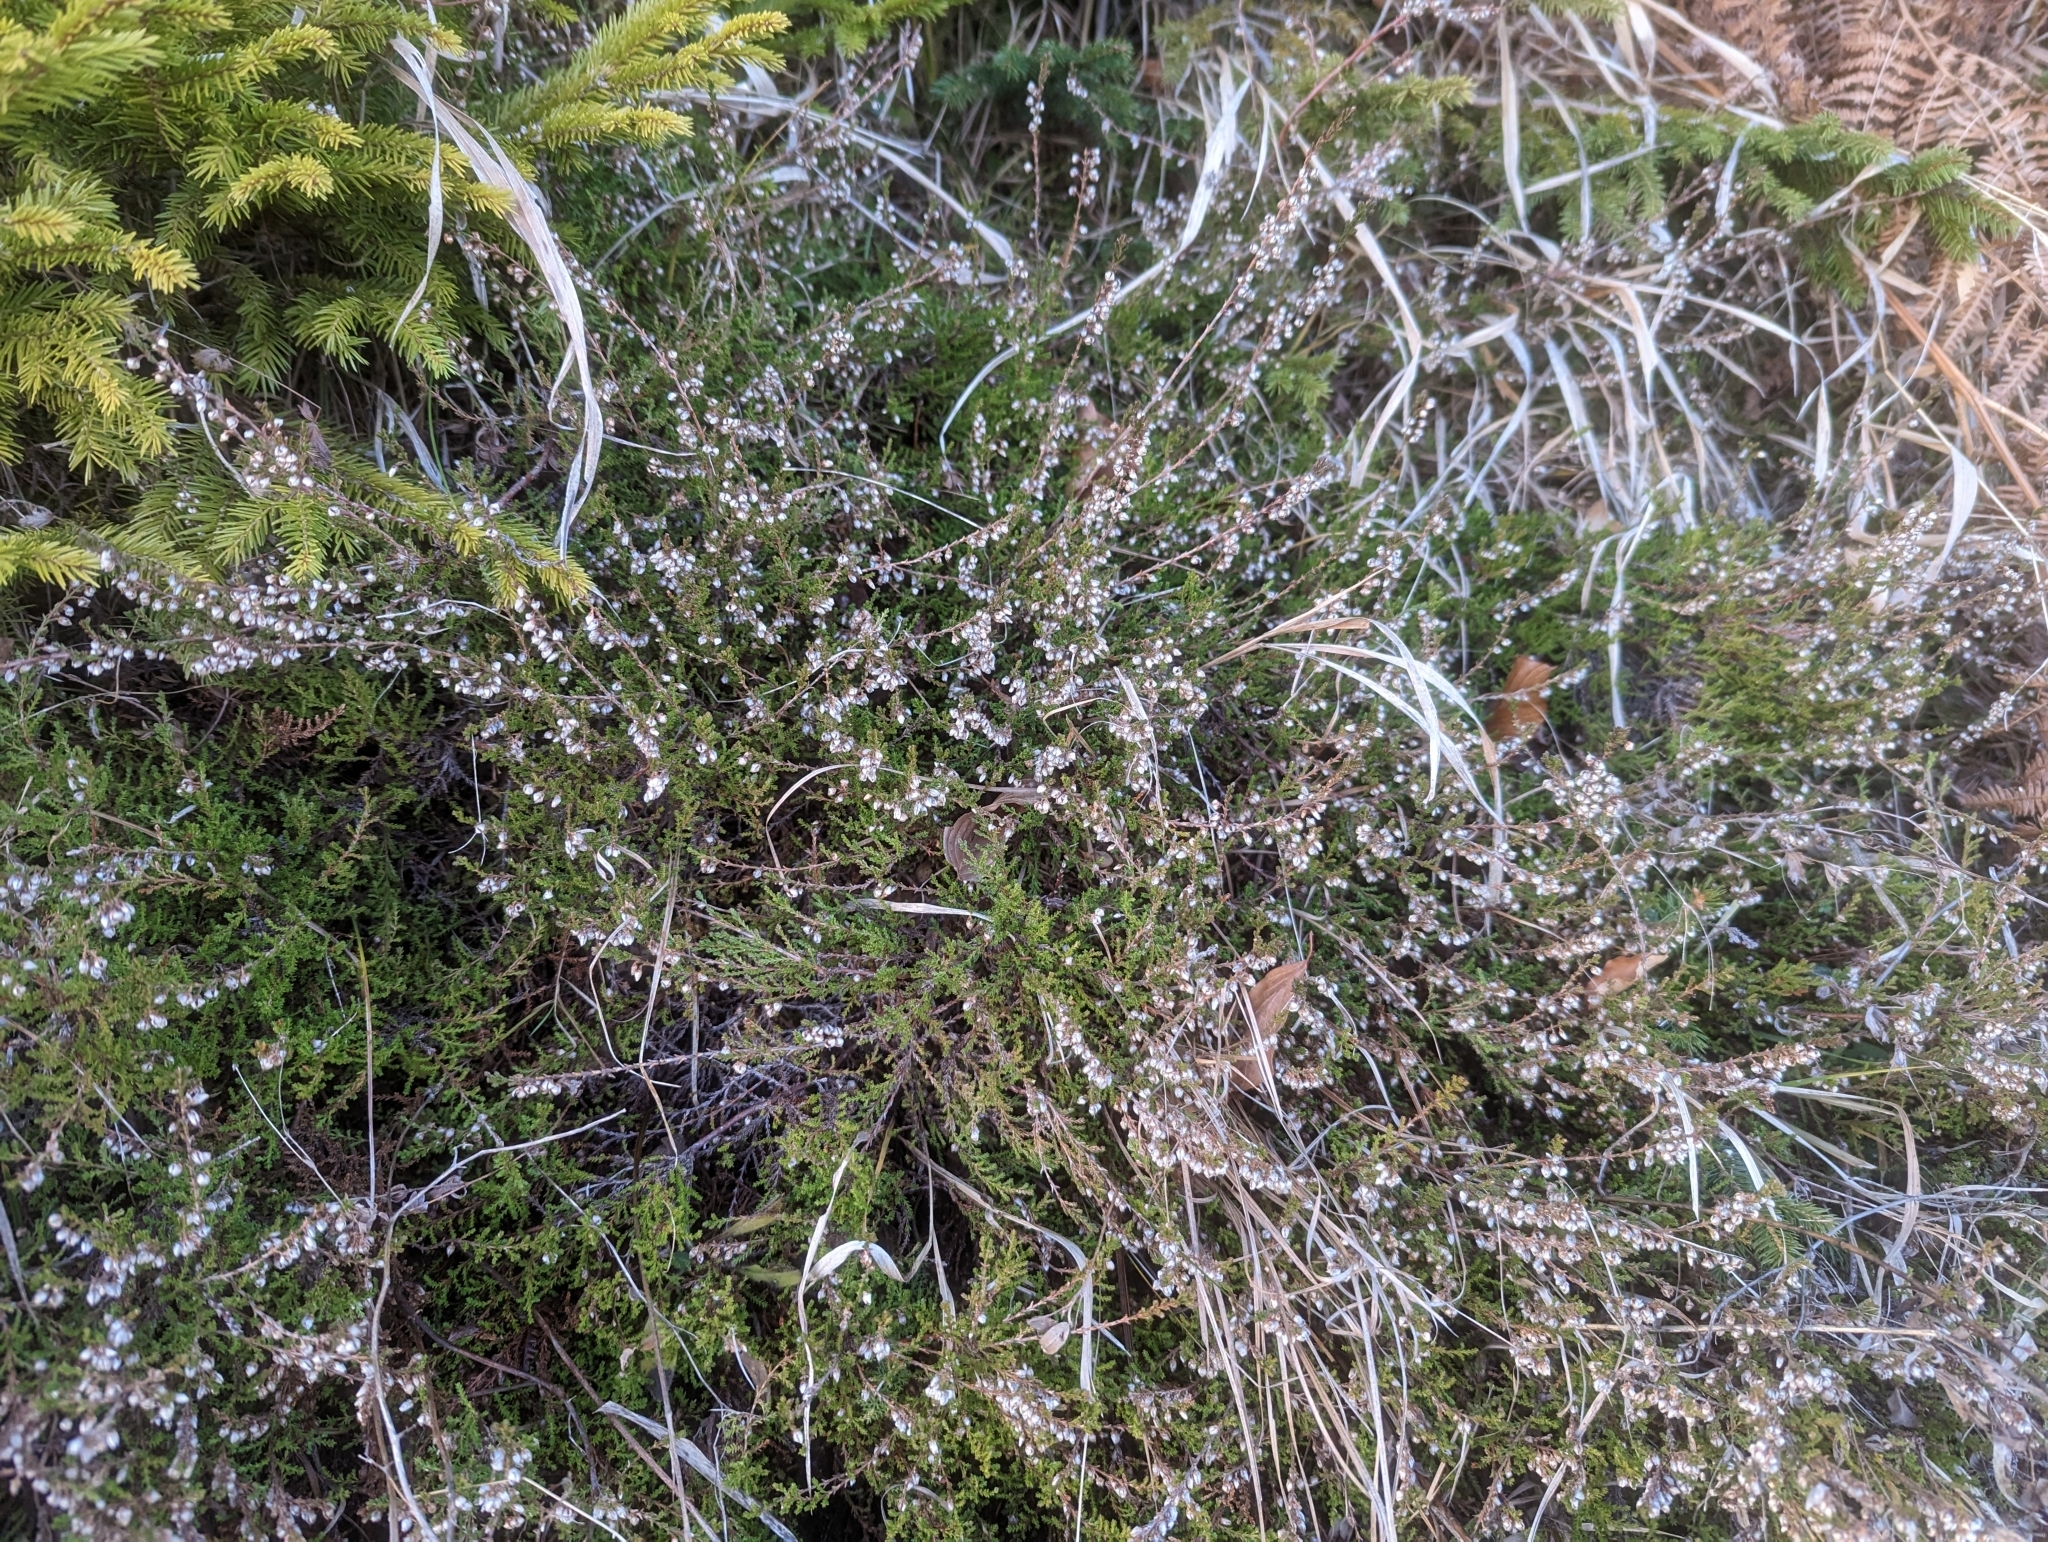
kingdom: Plantae
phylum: Tracheophyta
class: Magnoliopsida
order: Ericales
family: Ericaceae
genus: Calluna
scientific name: Calluna vulgaris
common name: Heather
